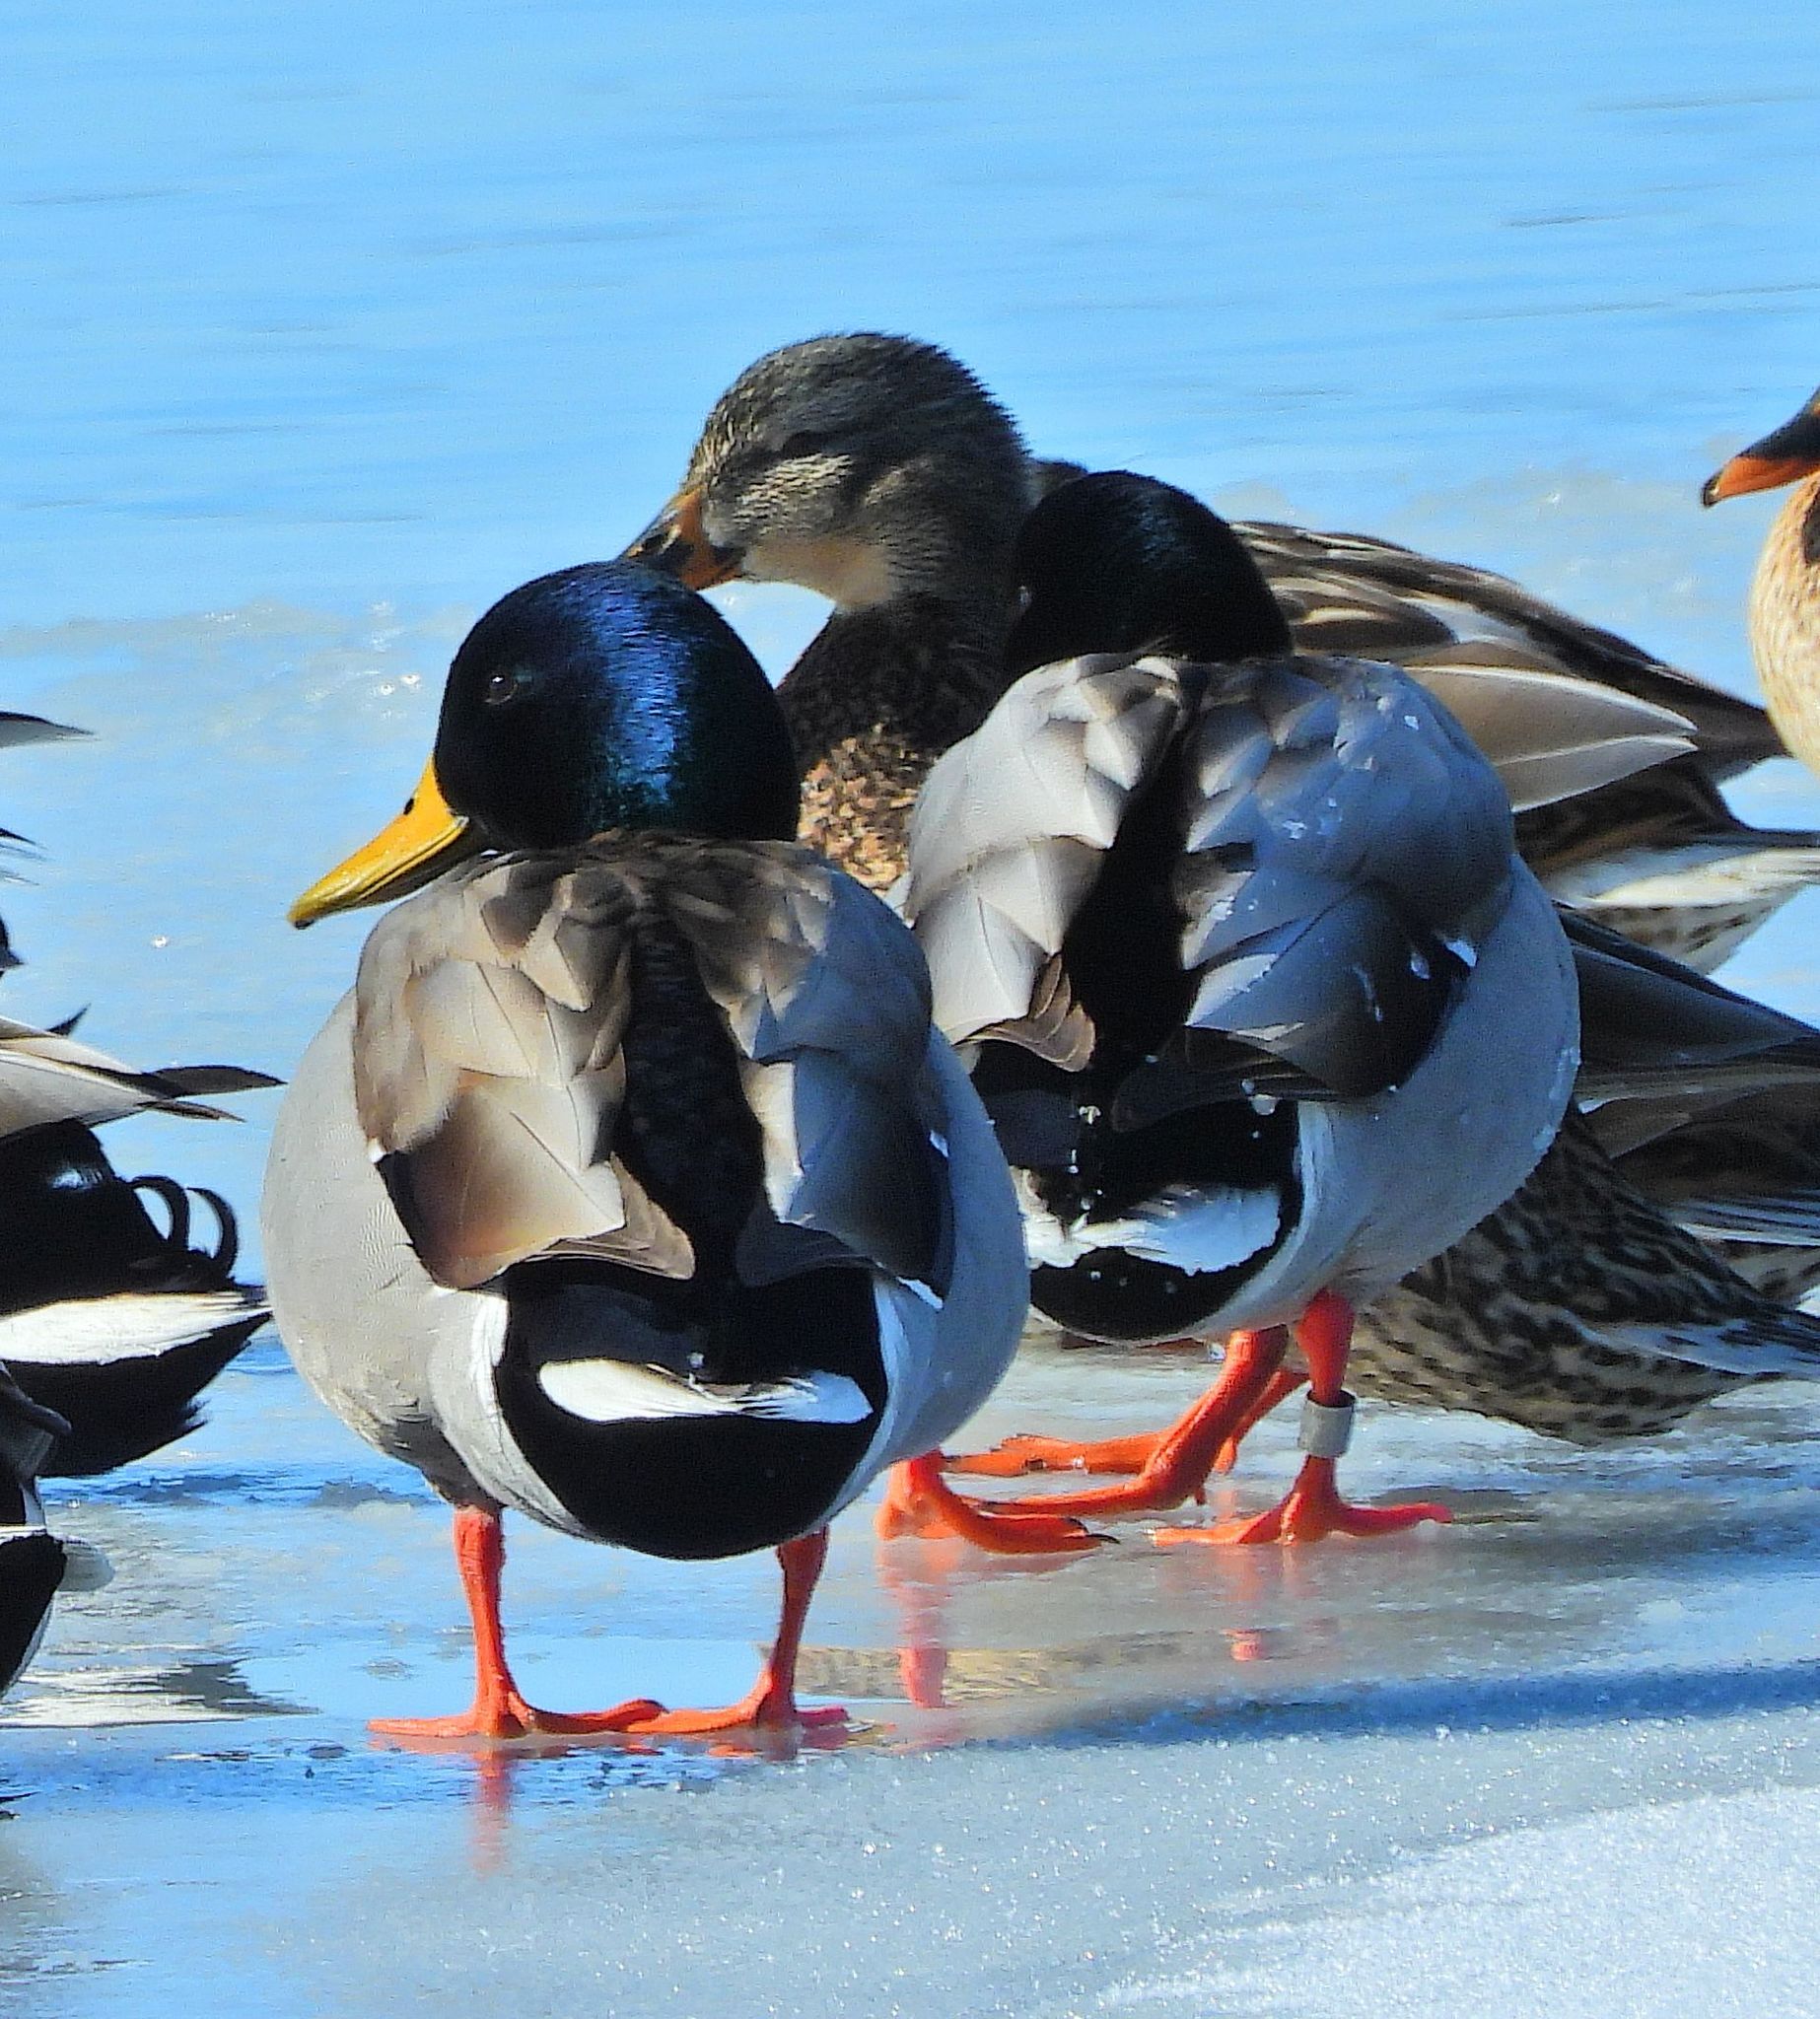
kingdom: Animalia
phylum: Chordata
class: Aves
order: Anseriformes
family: Anatidae
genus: Anas
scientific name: Anas platyrhynchos
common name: Mallard
